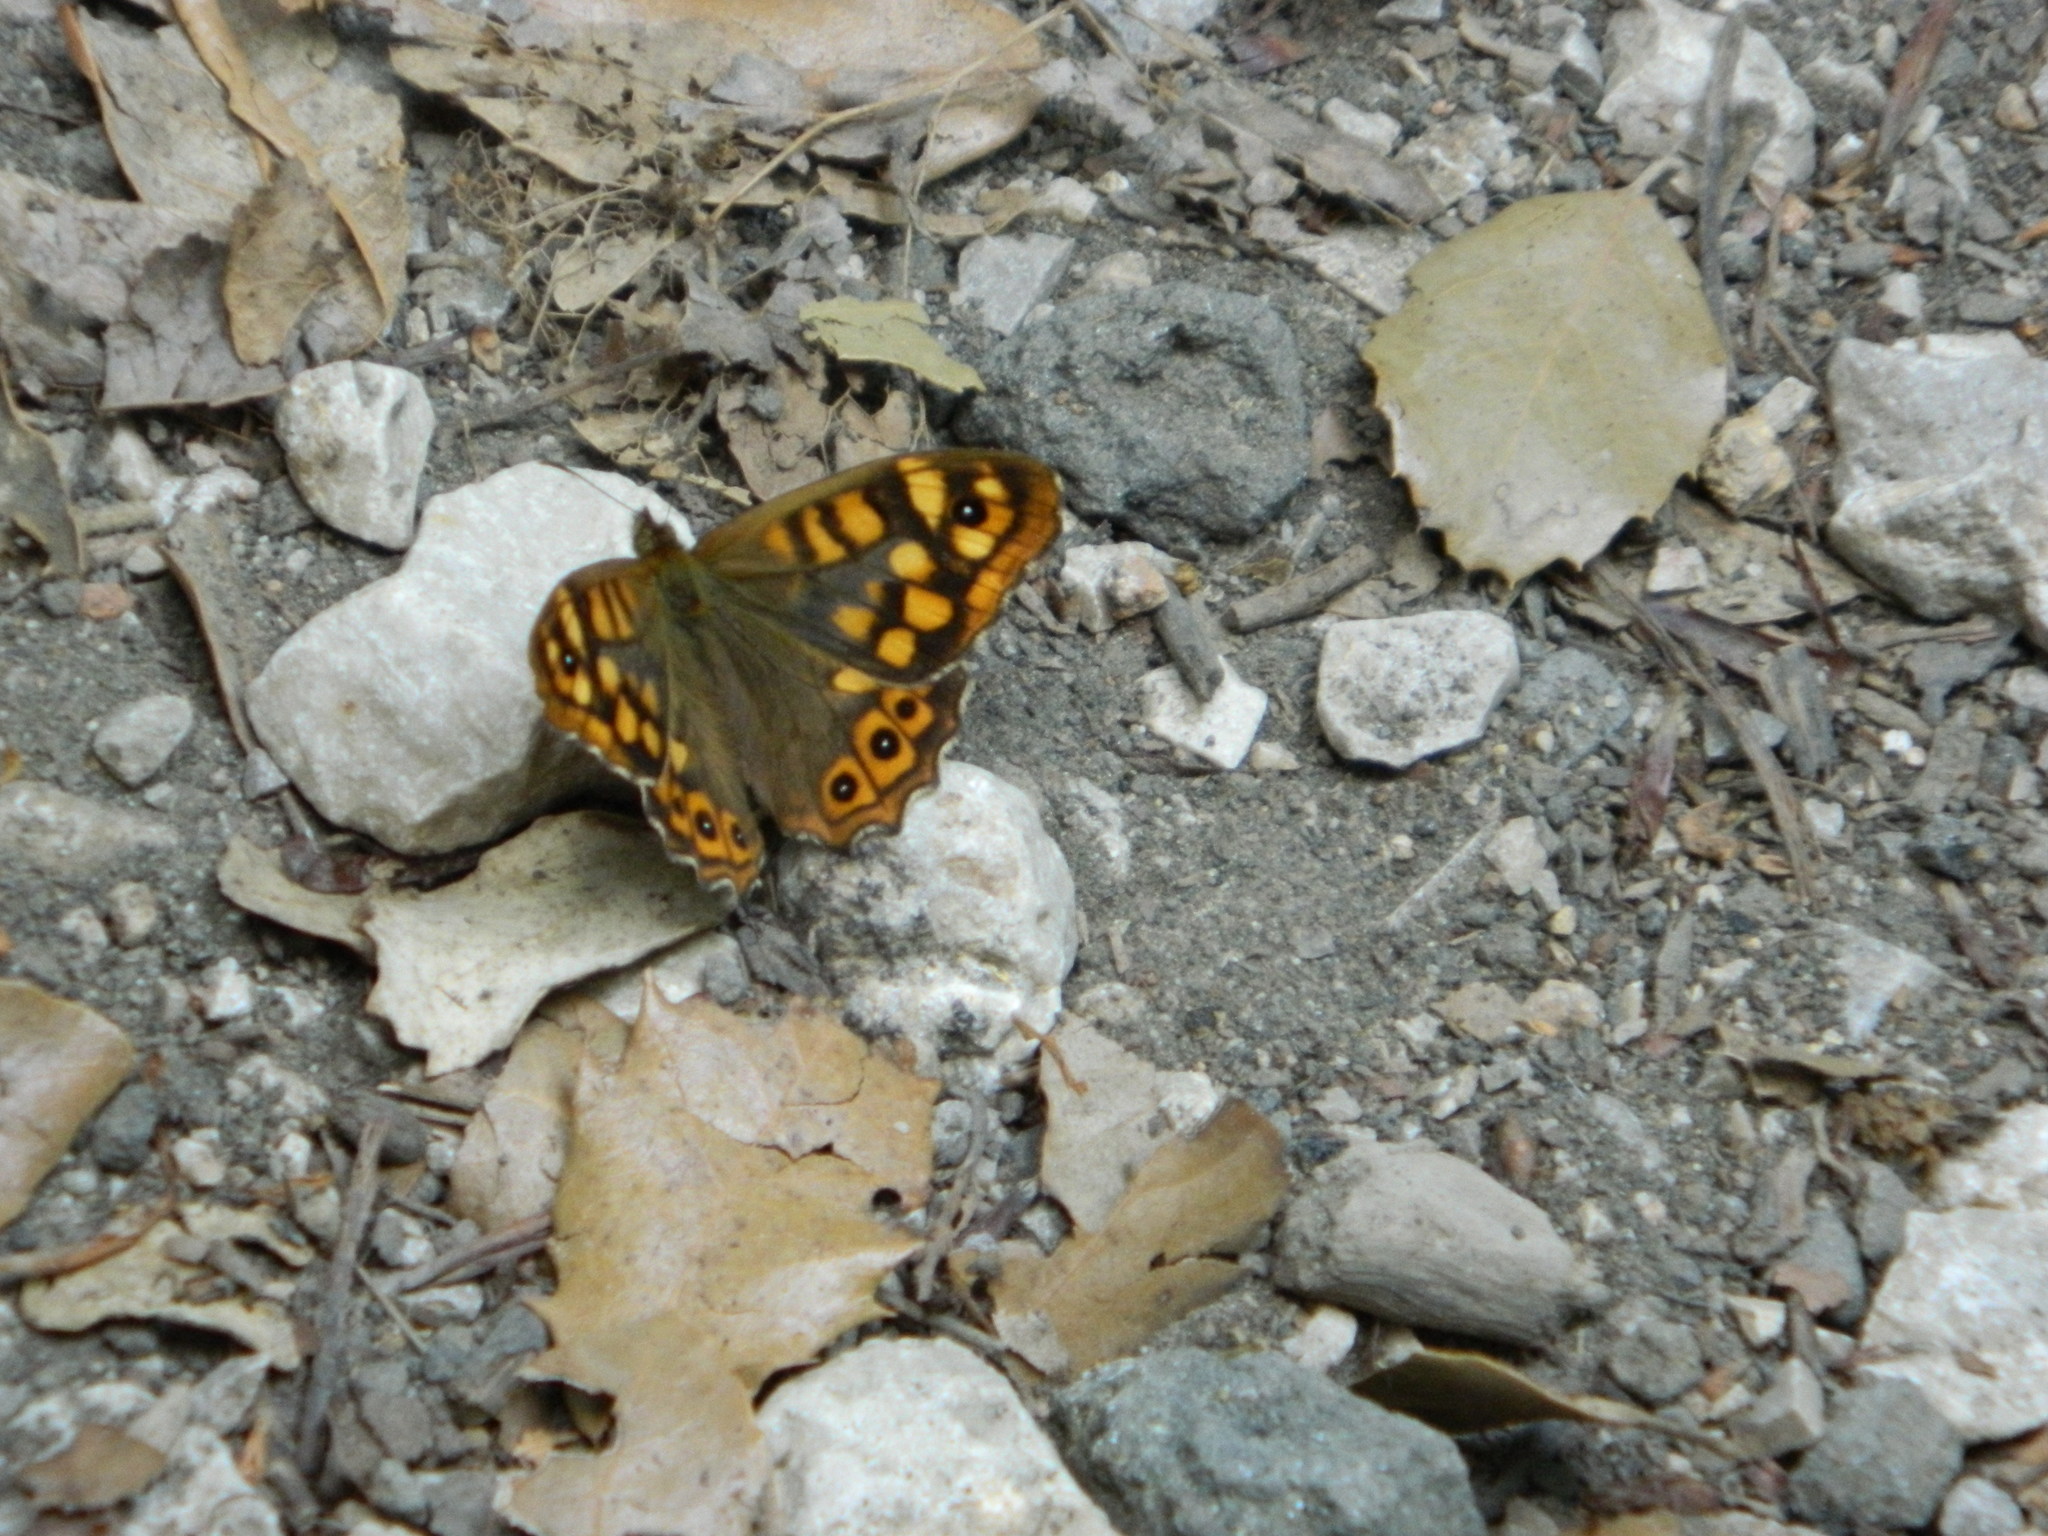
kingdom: Animalia
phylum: Arthropoda
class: Insecta
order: Lepidoptera
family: Nymphalidae
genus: Pararge
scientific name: Pararge aegeria
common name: Speckled wood
